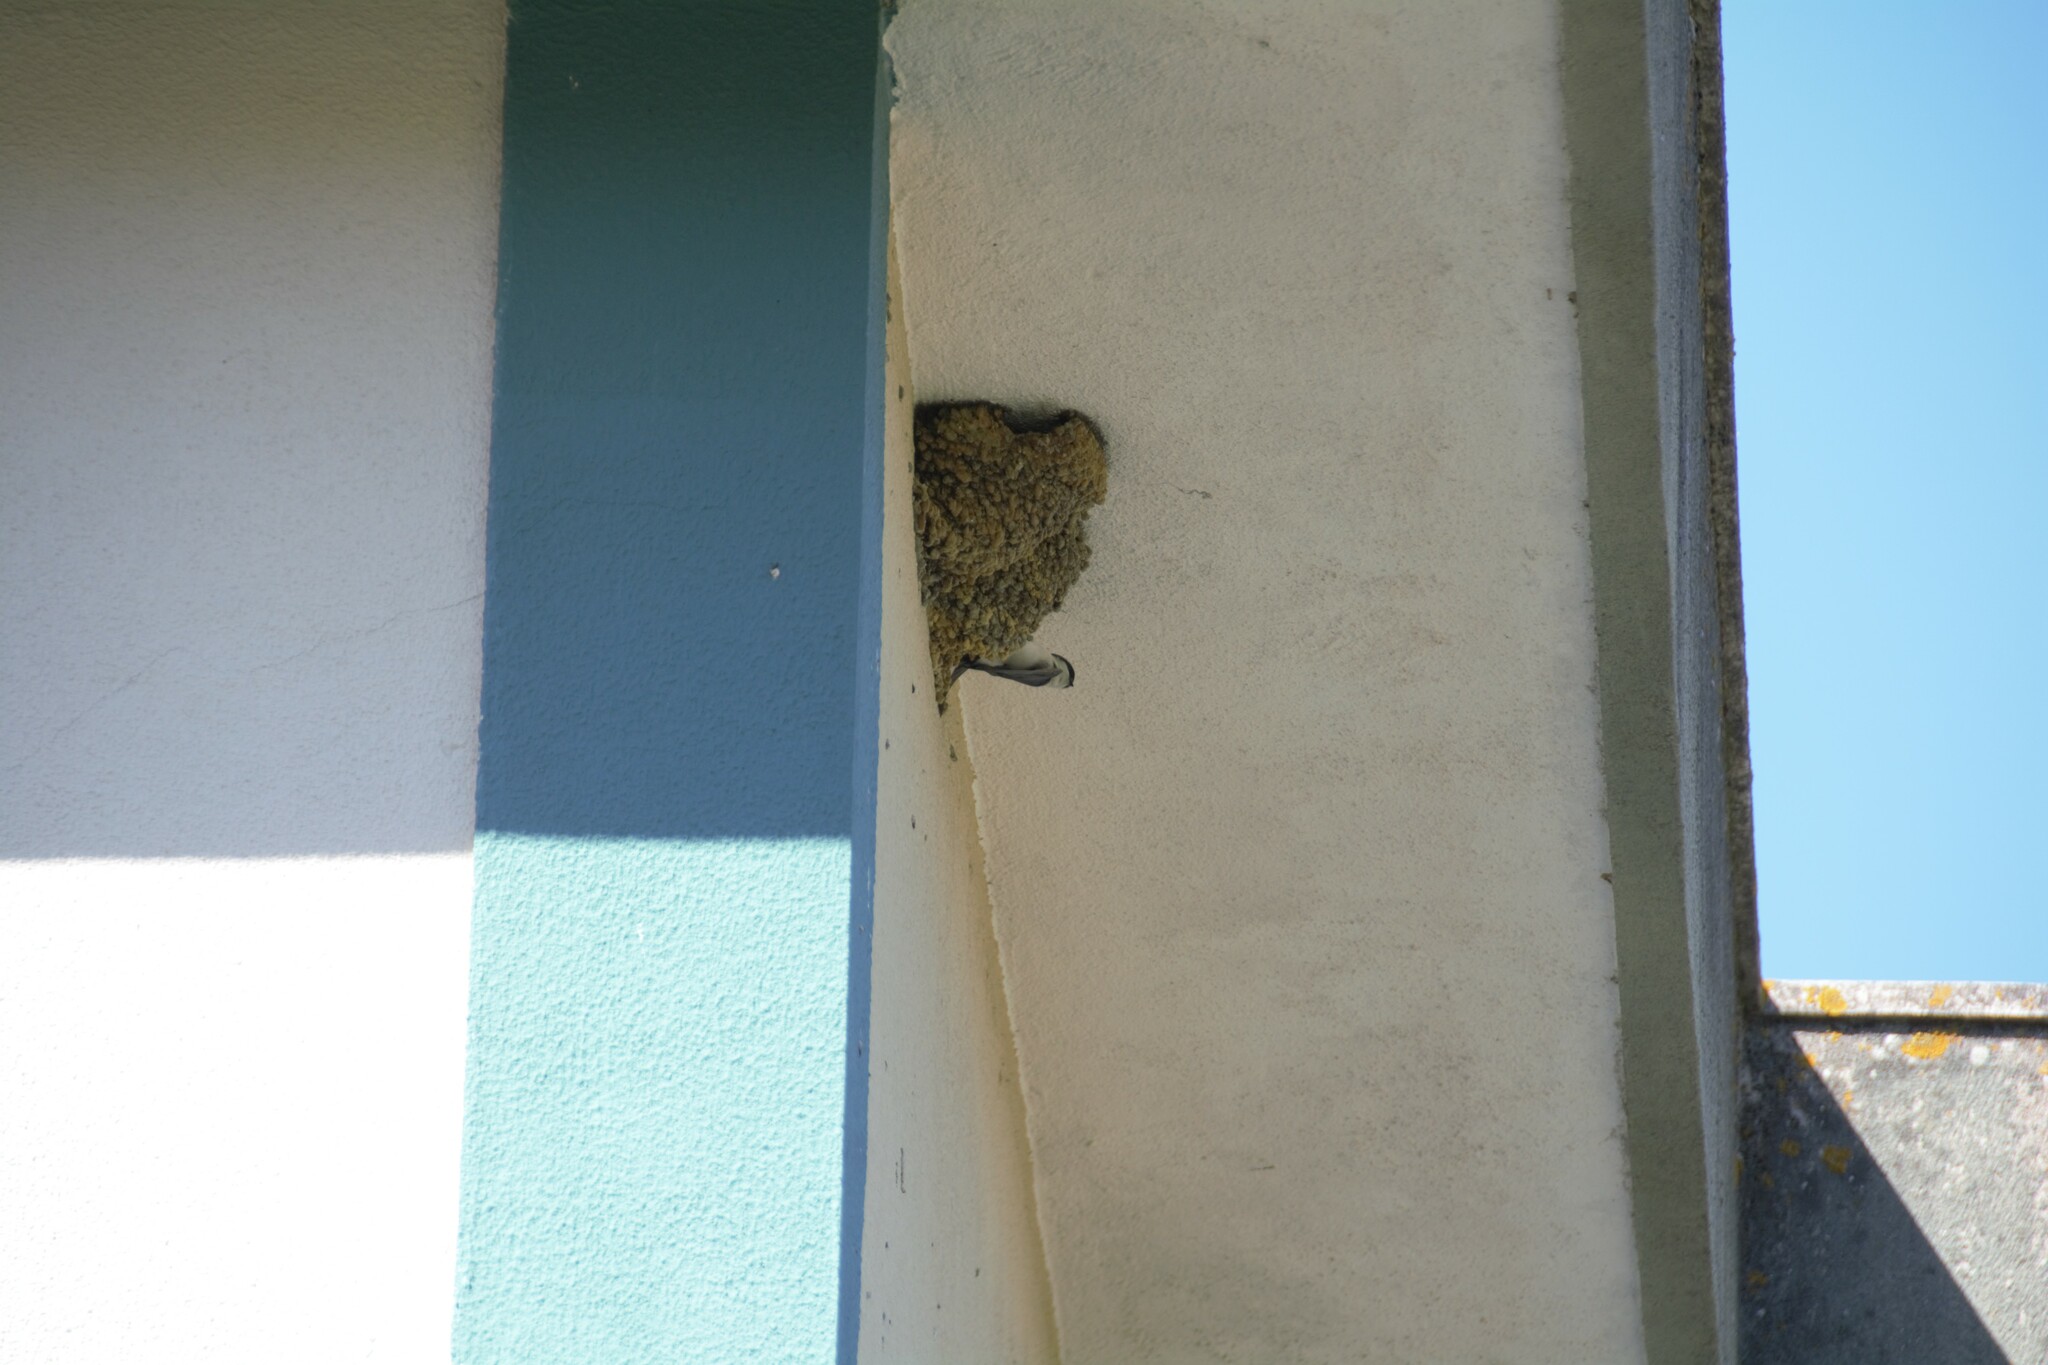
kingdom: Animalia
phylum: Chordata
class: Aves
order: Passeriformes
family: Hirundinidae
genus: Delichon
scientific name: Delichon urbicum
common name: Common house martin
